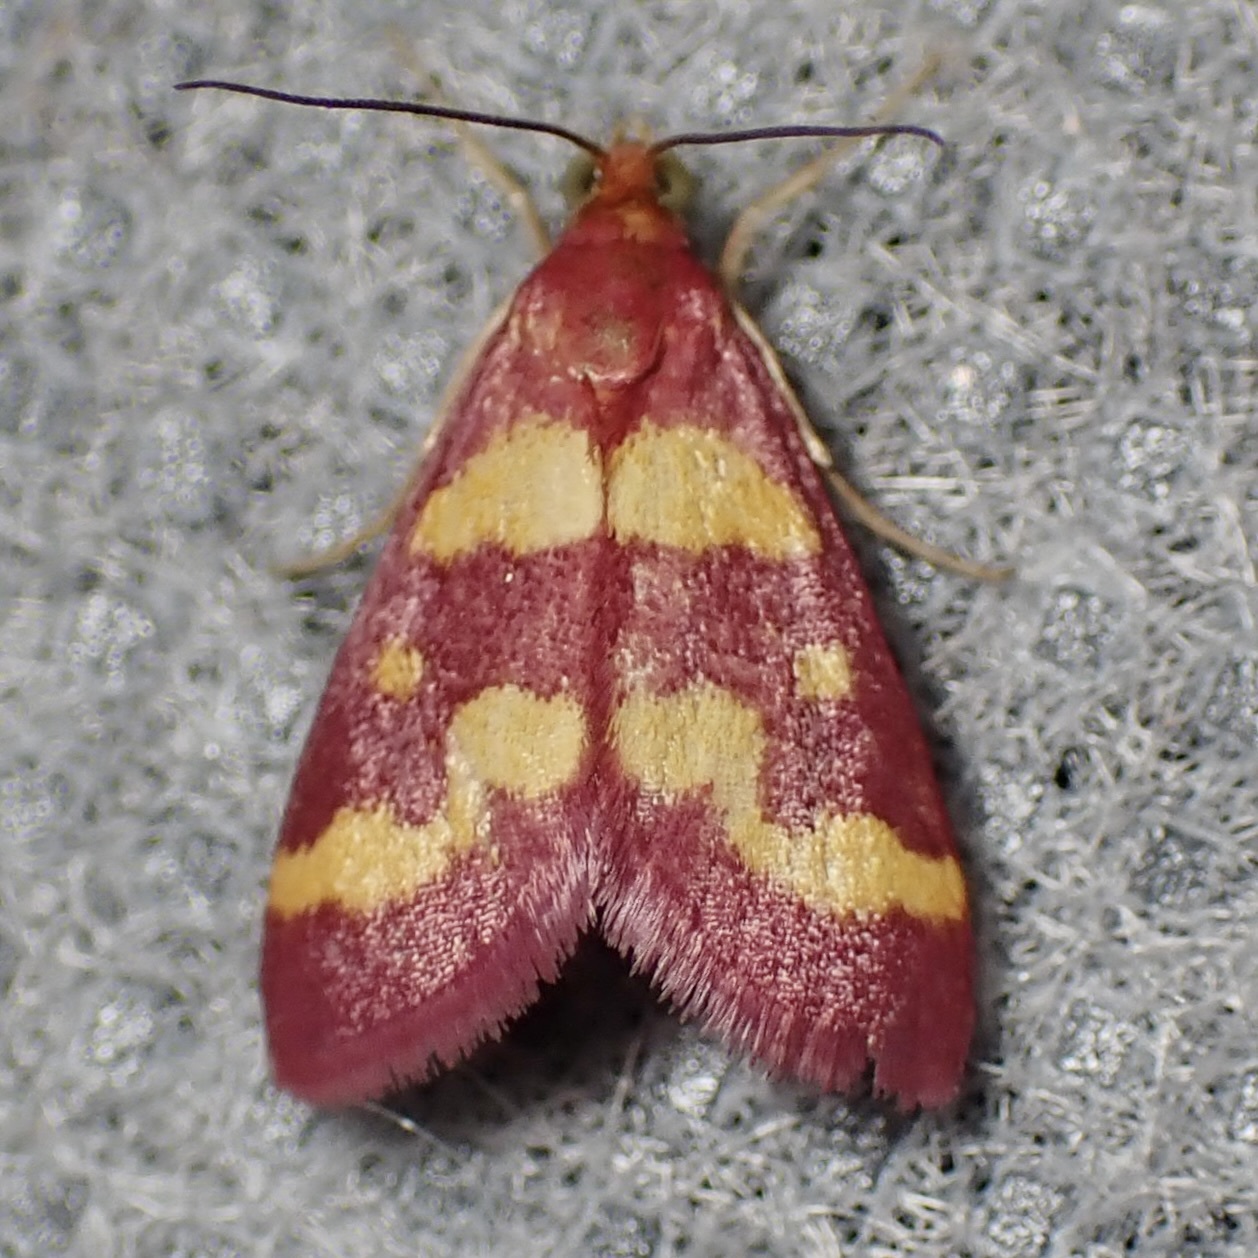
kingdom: Animalia
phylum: Arthropoda
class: Insecta
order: Lepidoptera
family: Crambidae
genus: Pyrausta
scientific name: Pyrausta tyralis
